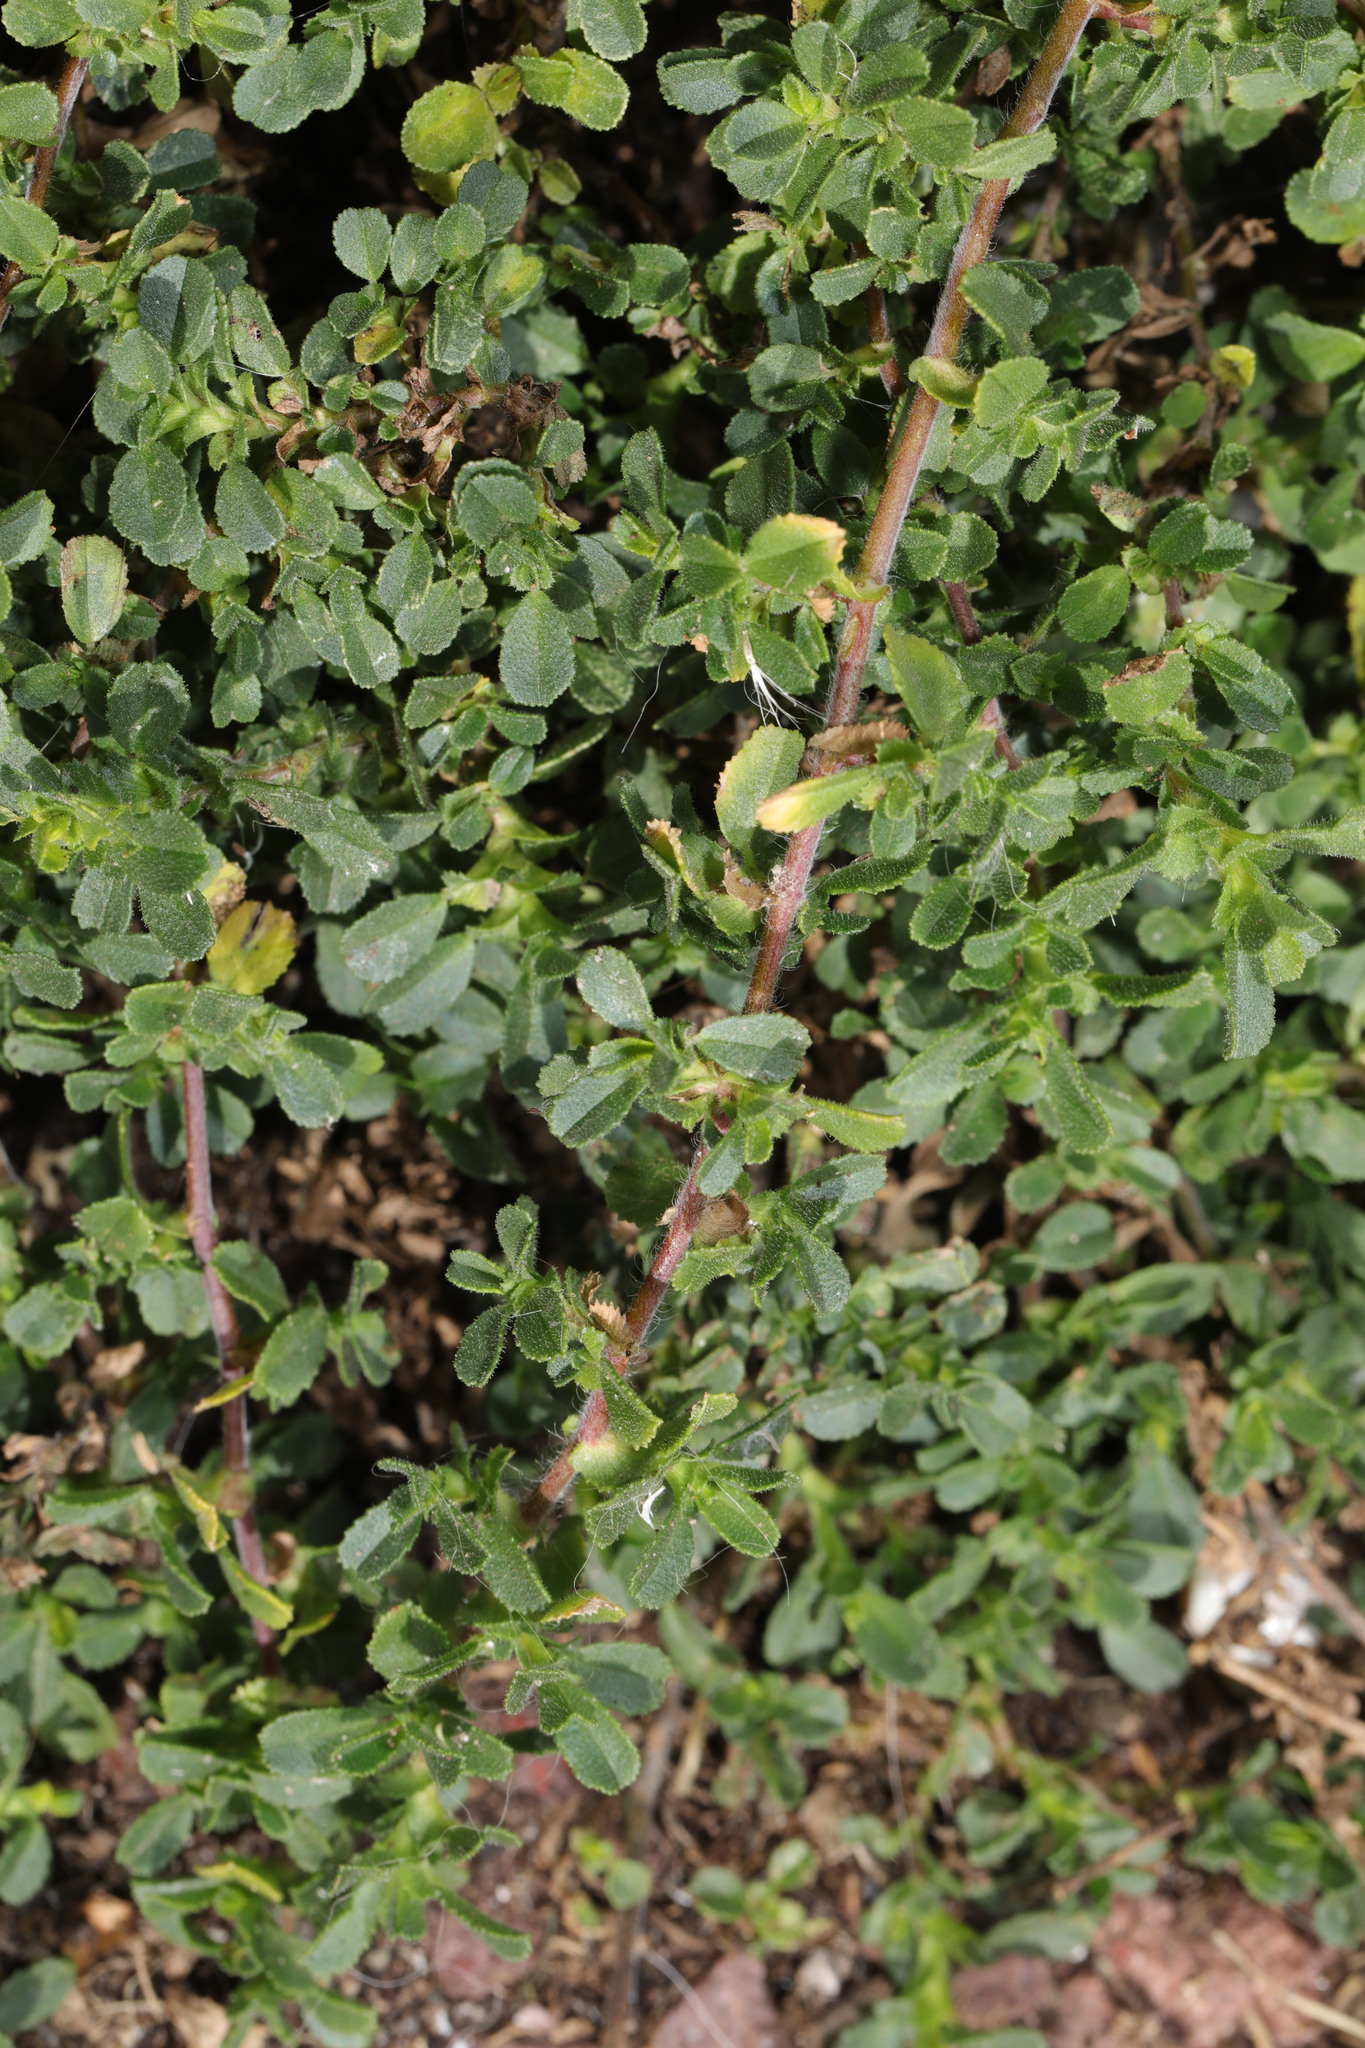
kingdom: Plantae
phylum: Tracheophyta
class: Magnoliopsida
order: Fabales
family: Fabaceae
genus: Ononis
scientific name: Ononis spinosa
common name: Spiny restharrow
